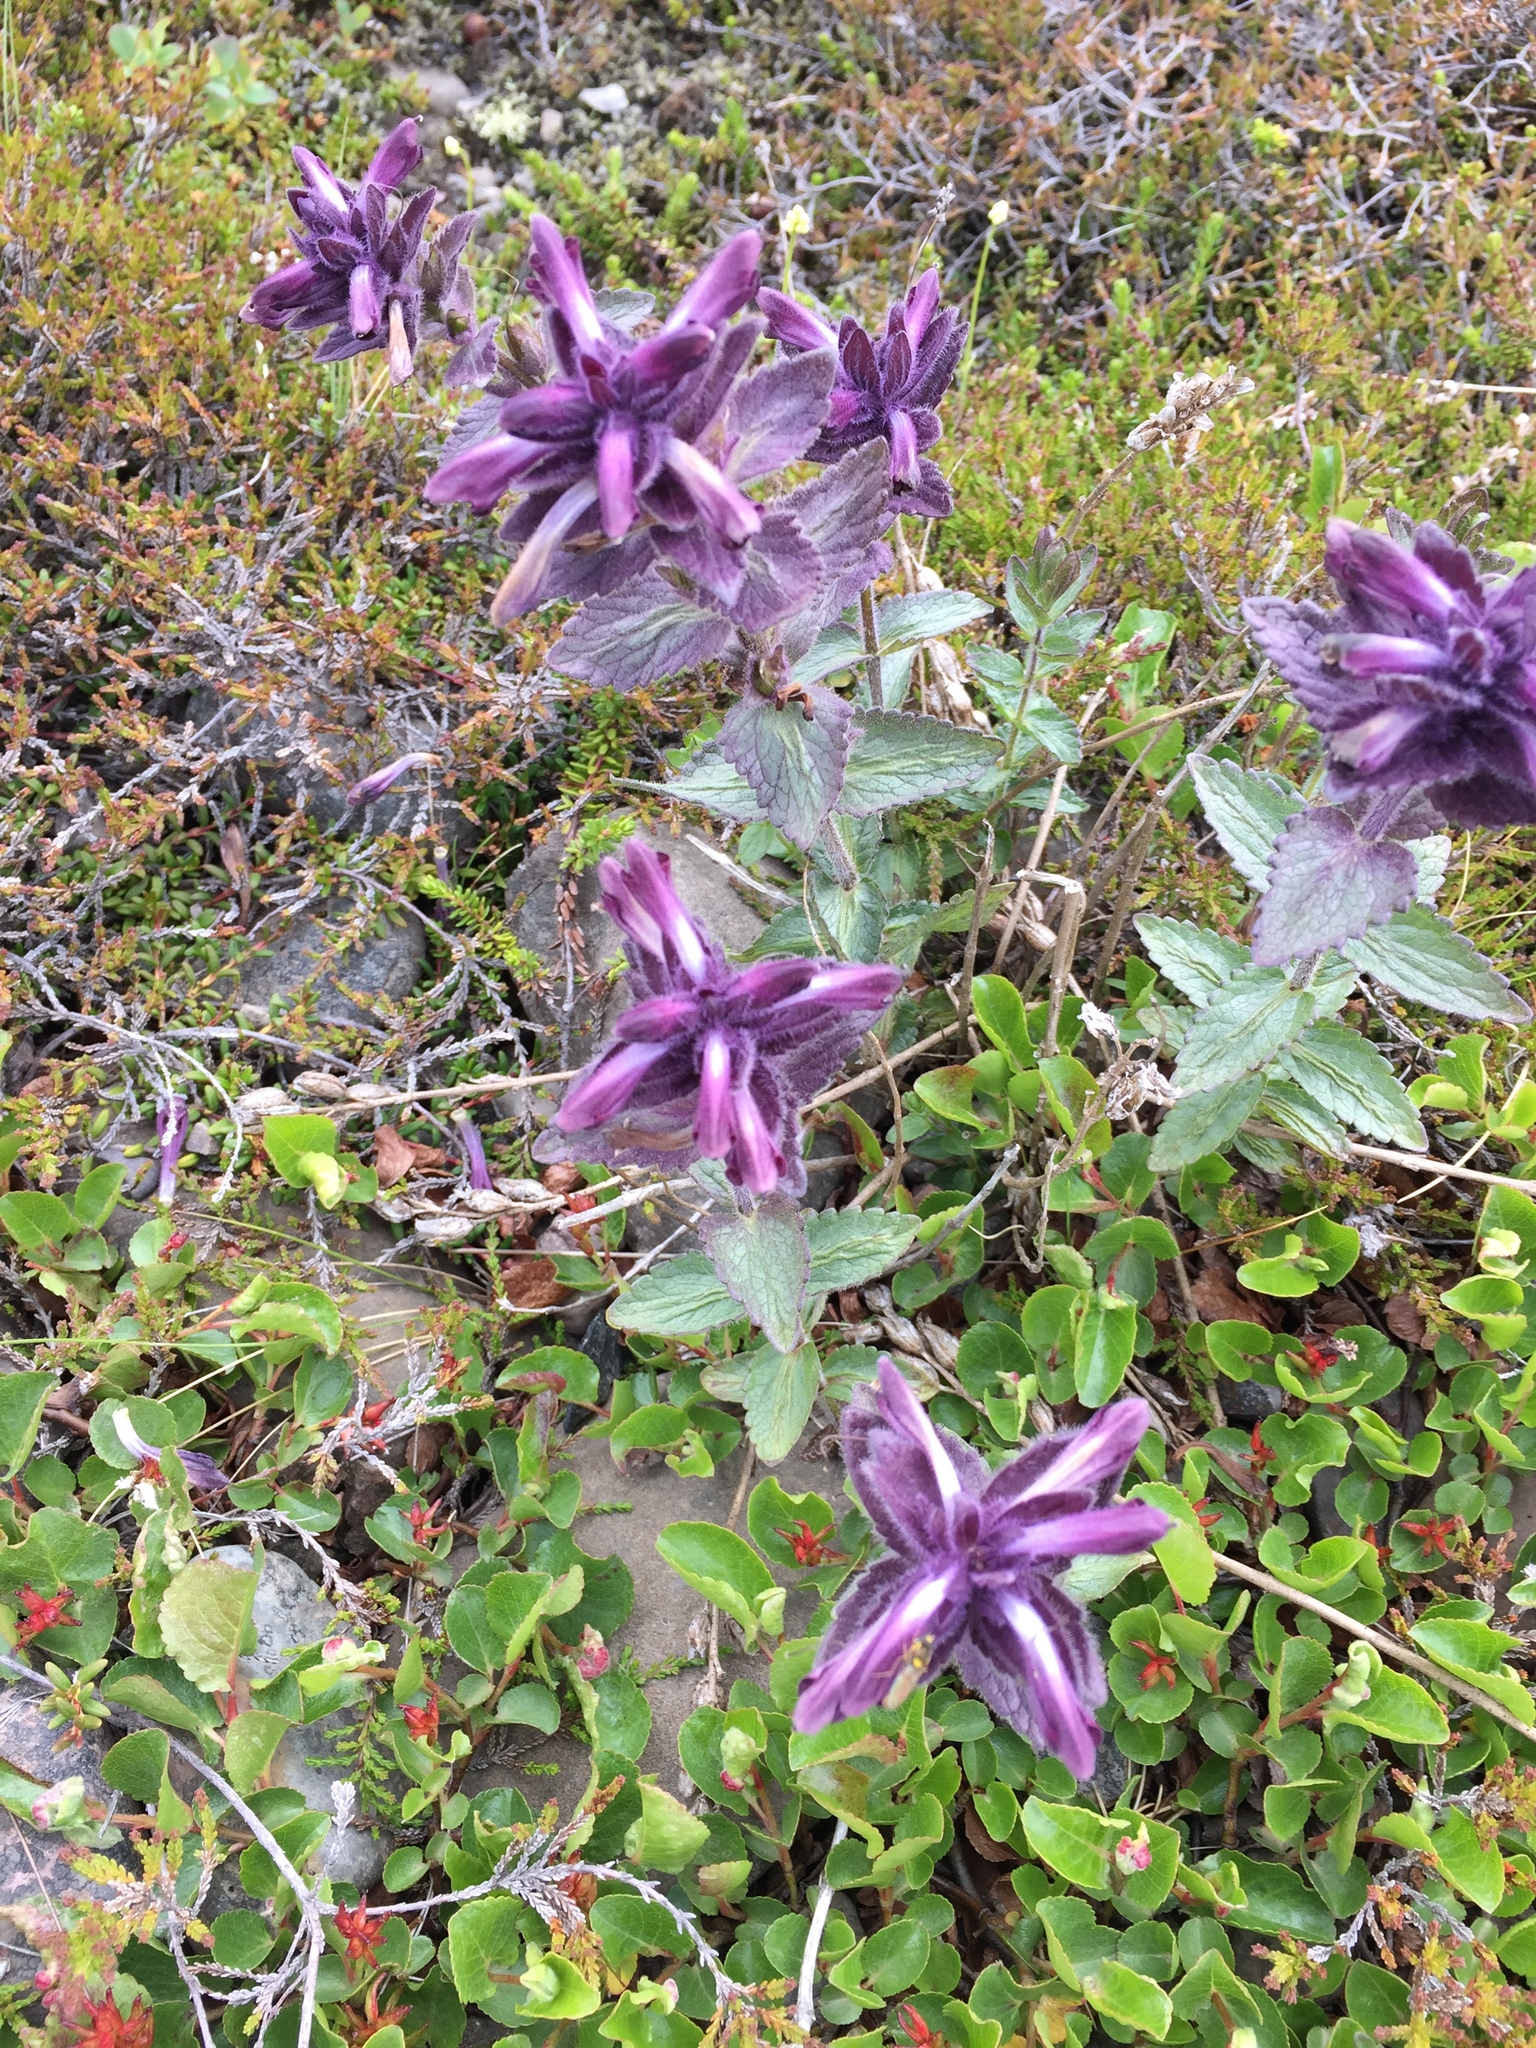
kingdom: Plantae
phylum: Tracheophyta
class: Magnoliopsida
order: Lamiales
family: Orobanchaceae
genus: Bartsia
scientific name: Bartsia alpina
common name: Alpine bartsia
